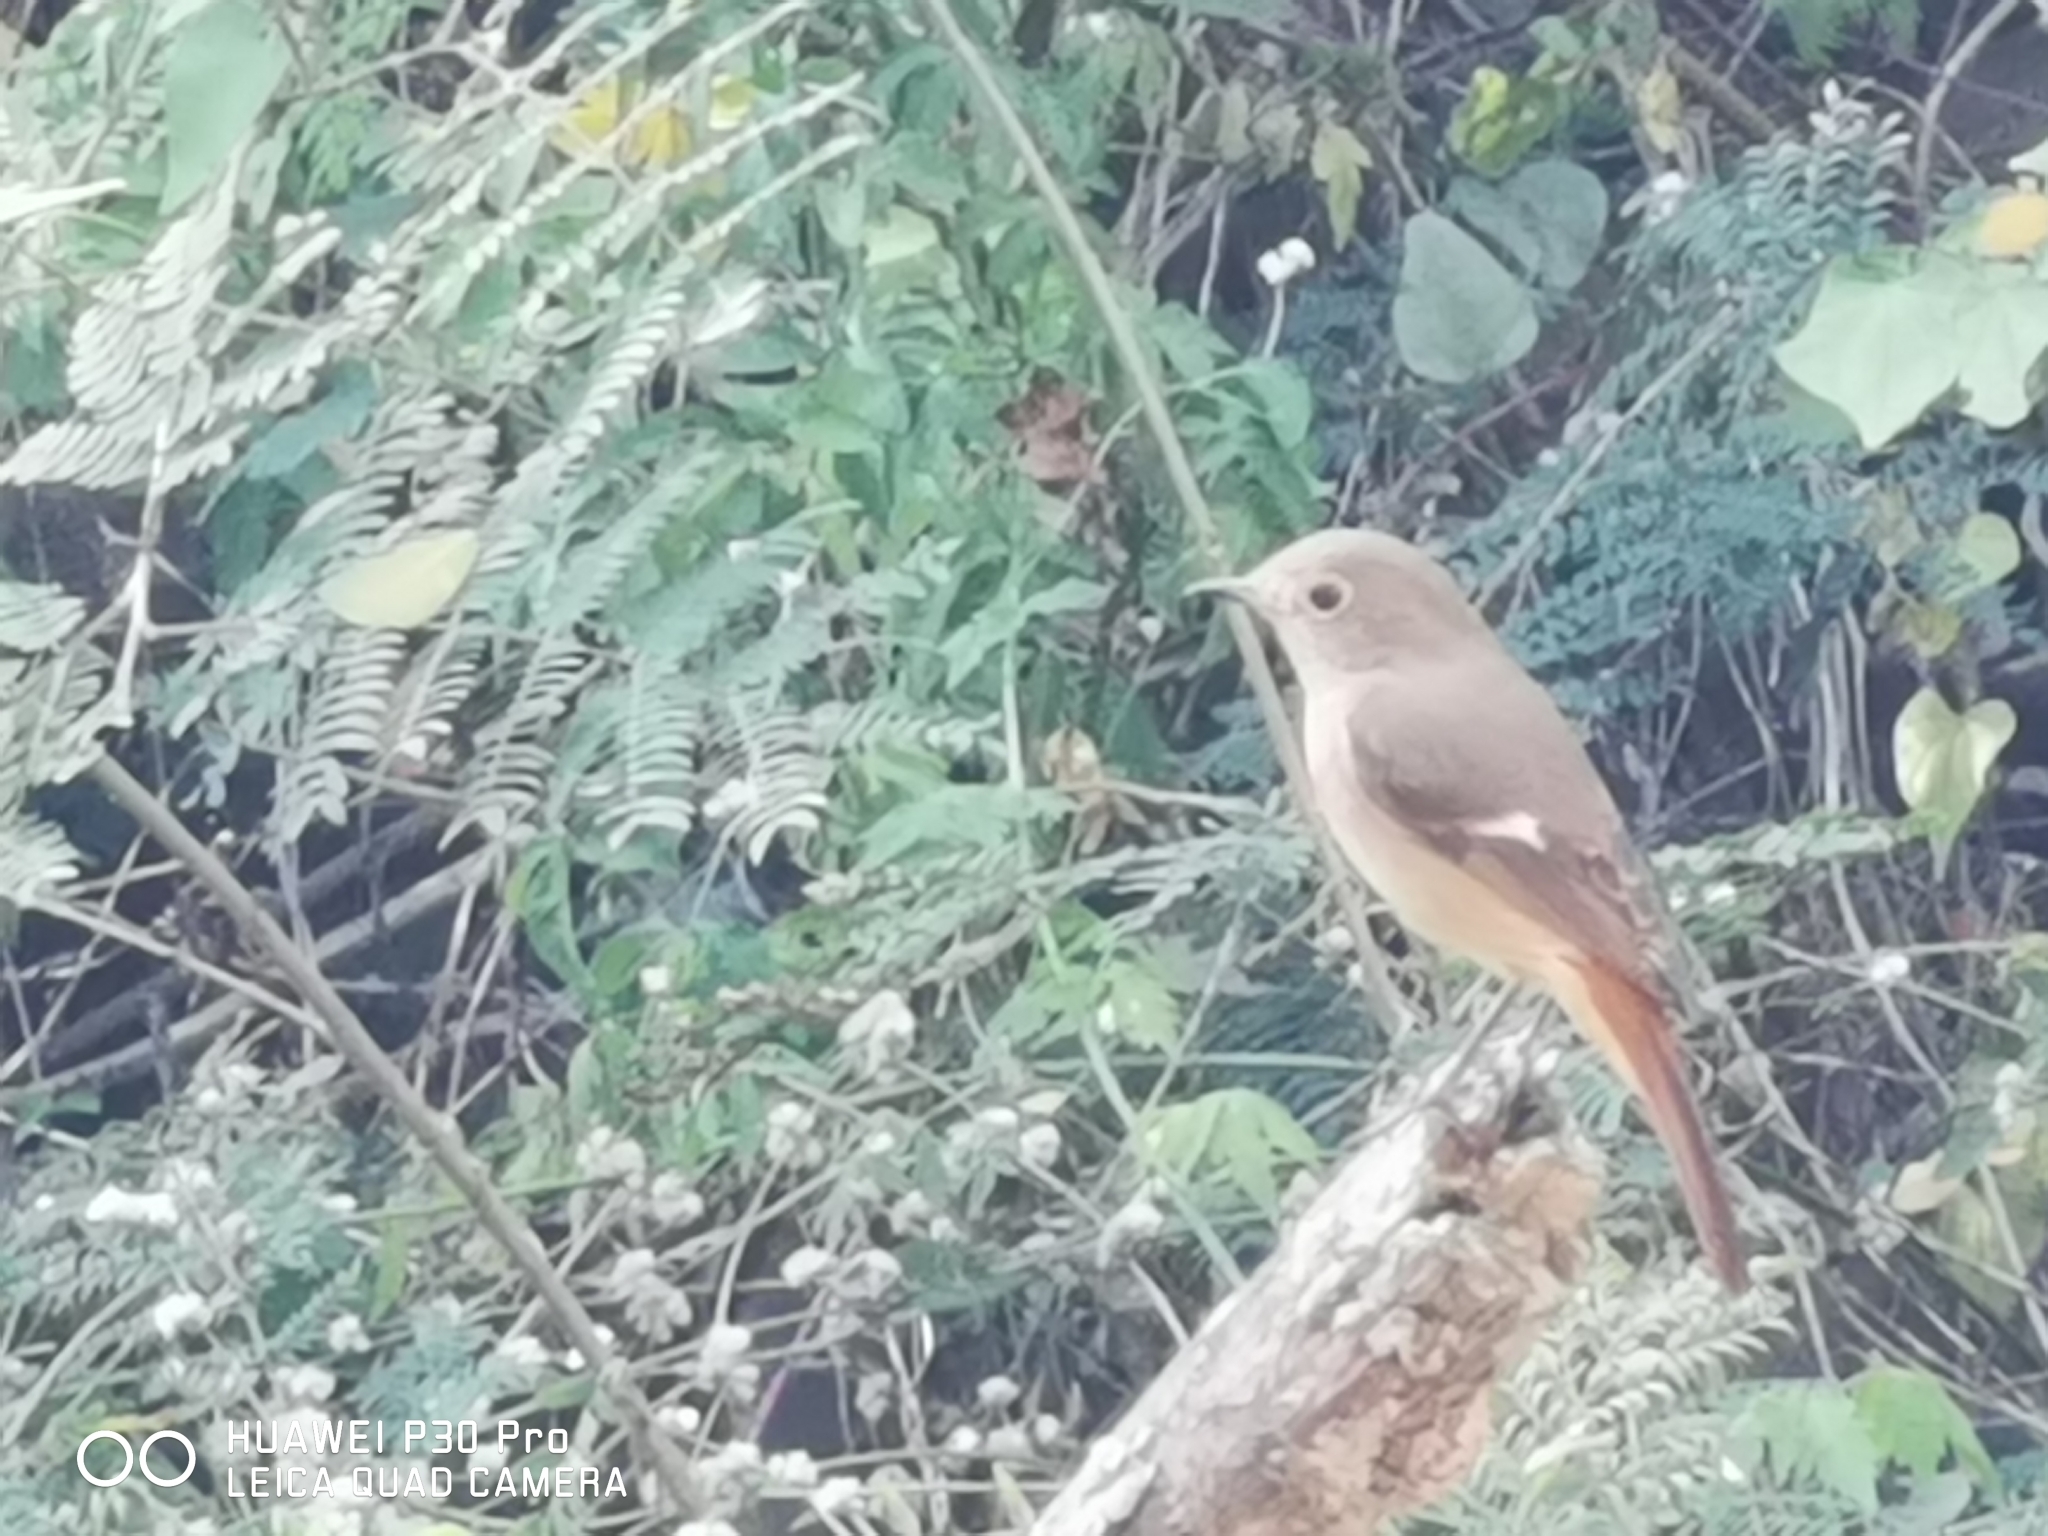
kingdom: Animalia
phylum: Chordata
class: Aves
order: Passeriformes
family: Muscicapidae
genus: Phoenicurus
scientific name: Phoenicurus auroreus
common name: Daurian redstart
